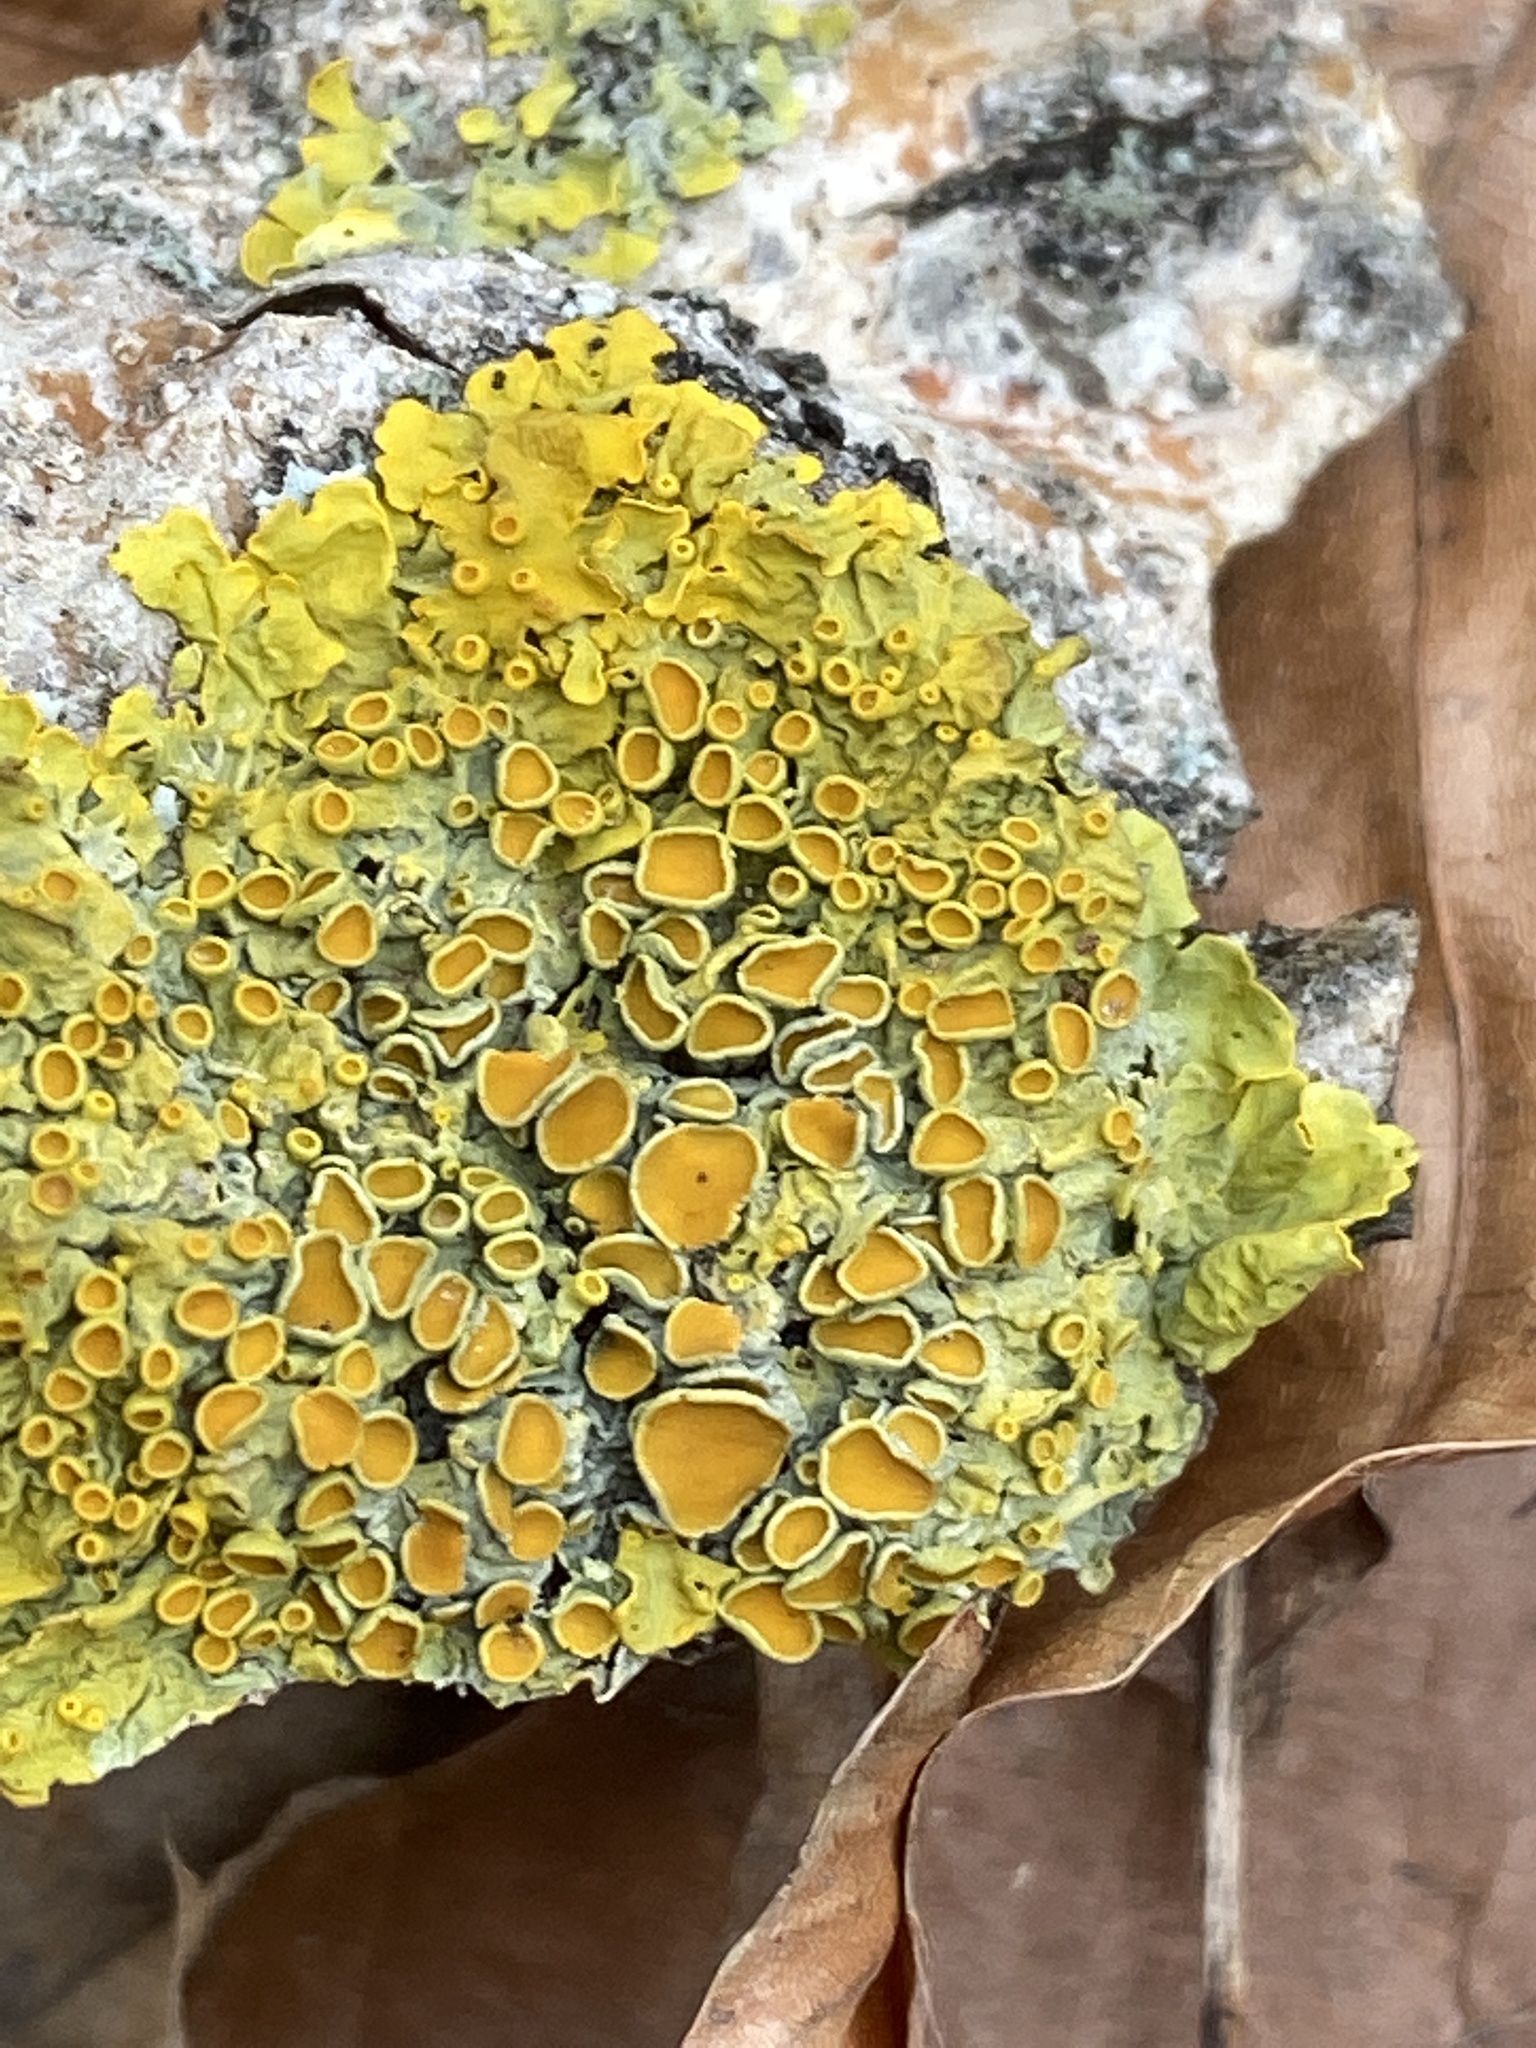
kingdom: Fungi
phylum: Ascomycota
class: Lecanoromycetes
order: Teloschistales
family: Teloschistaceae
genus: Xanthoria
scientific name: Xanthoria parietina
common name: Common orange lichen
